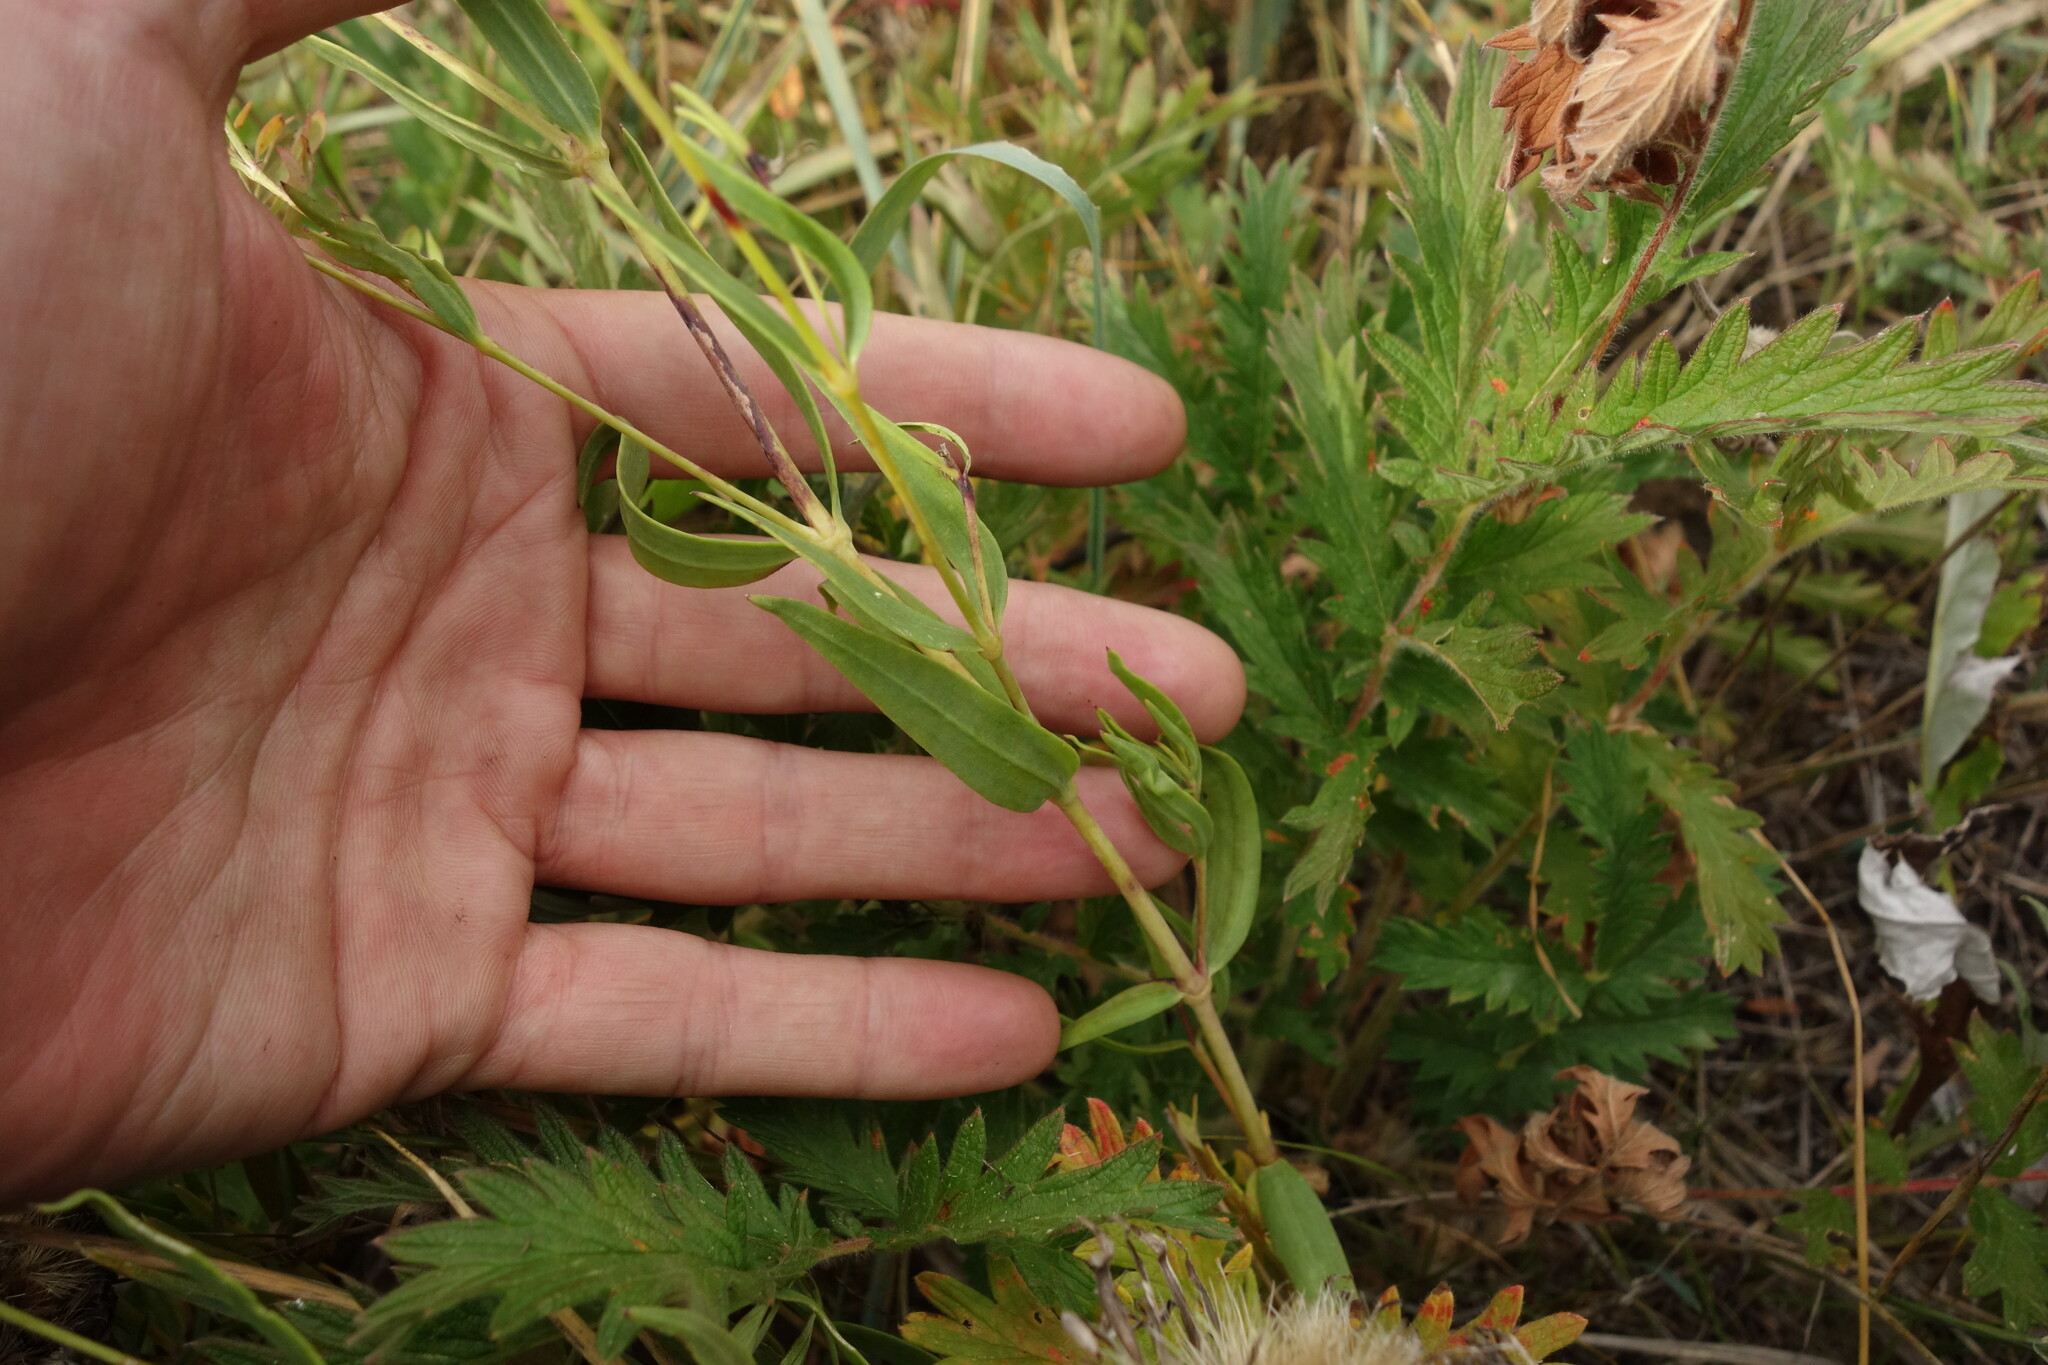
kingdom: Plantae
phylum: Tracheophyta
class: Magnoliopsida
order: Caryophyllales
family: Caryophyllaceae
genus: Gypsophila
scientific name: Gypsophila davurica
